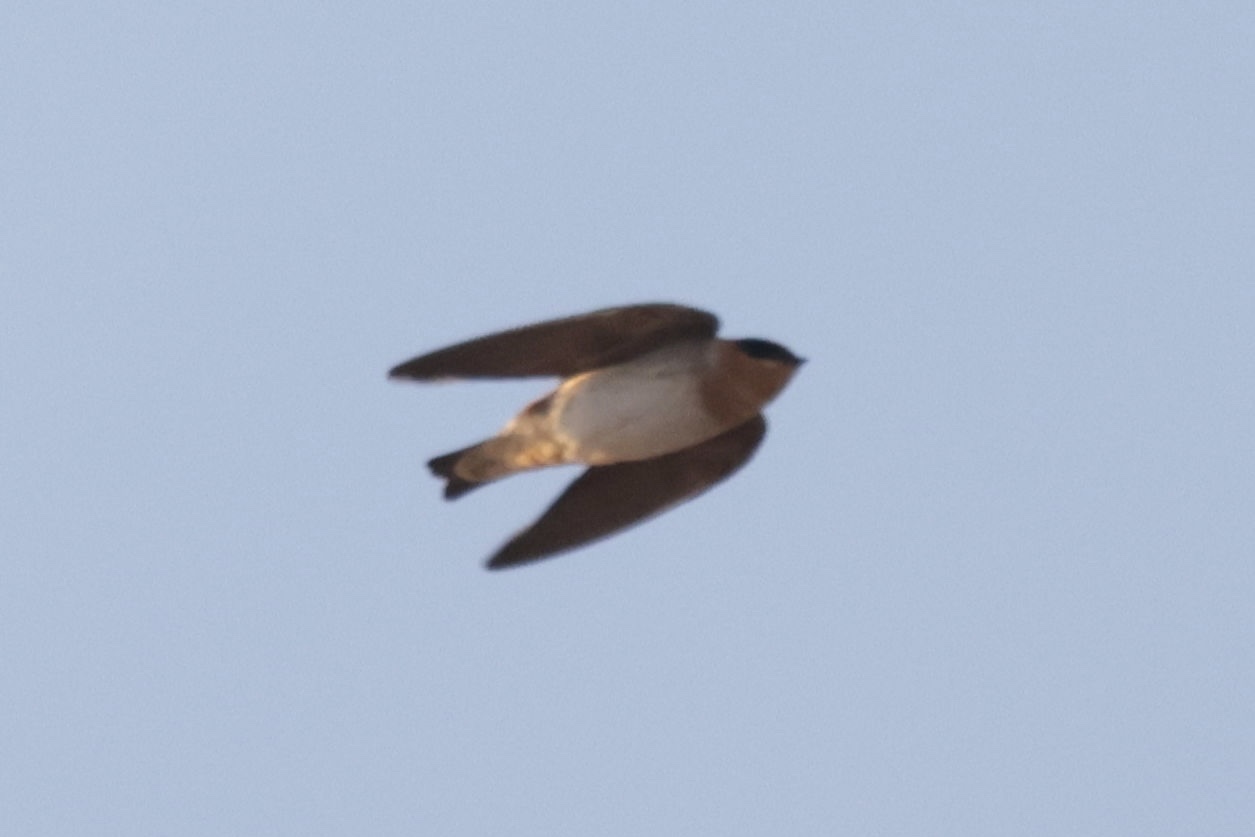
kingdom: Animalia
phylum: Chordata
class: Aves
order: Passeriformes
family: Hirundinidae
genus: Petrochelidon
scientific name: Petrochelidon fulva
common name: Cave swallow
